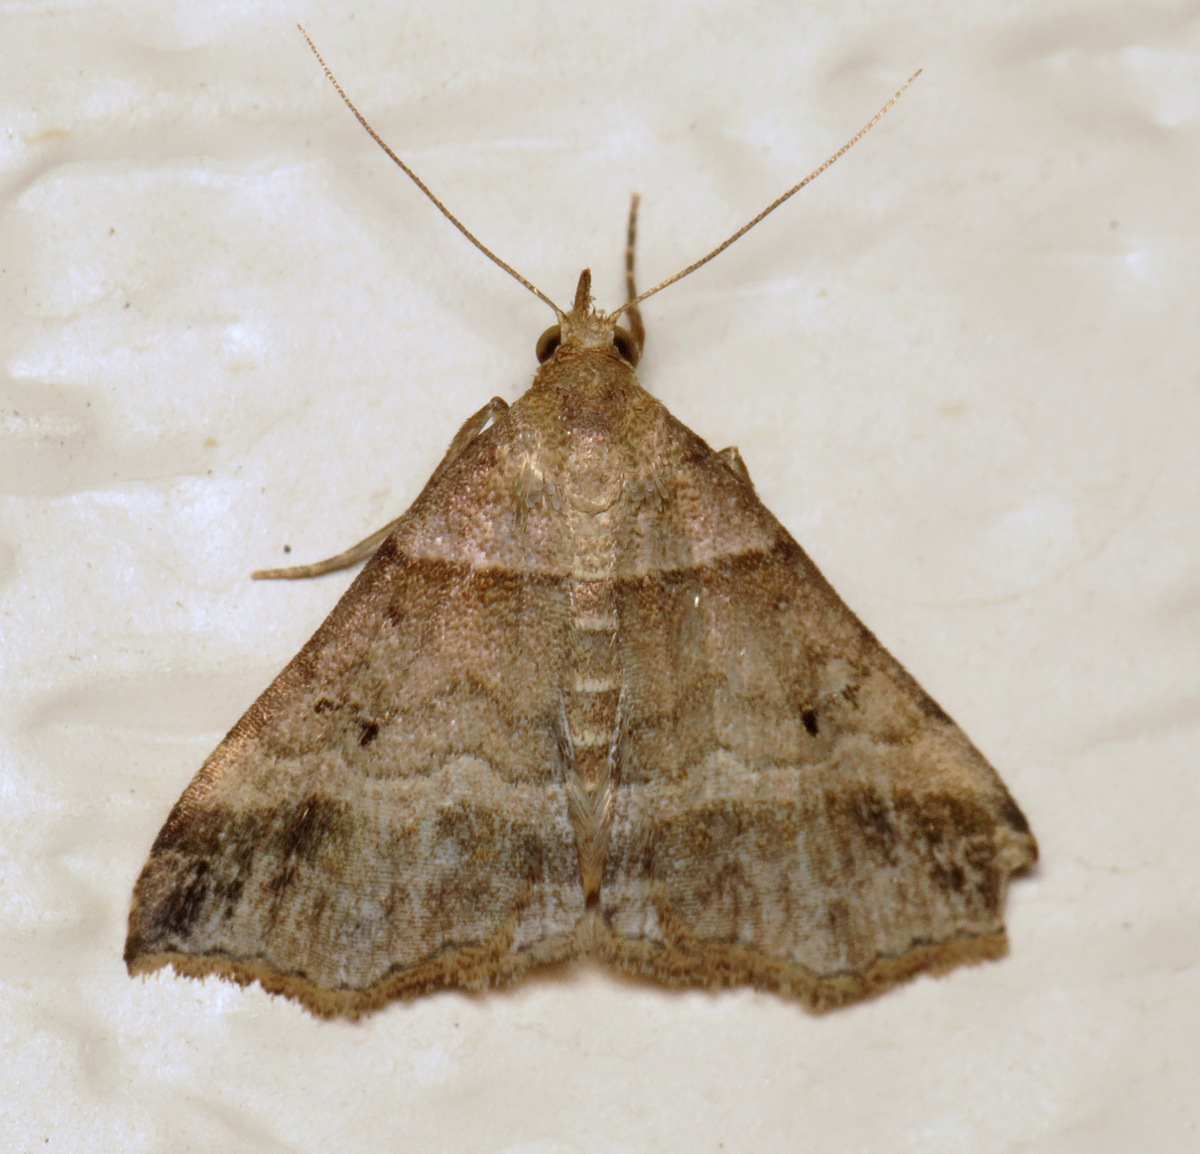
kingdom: Animalia
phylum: Arthropoda
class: Insecta
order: Lepidoptera
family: Erebidae
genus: Phaeolita
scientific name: Phaeolita pyramusalis
